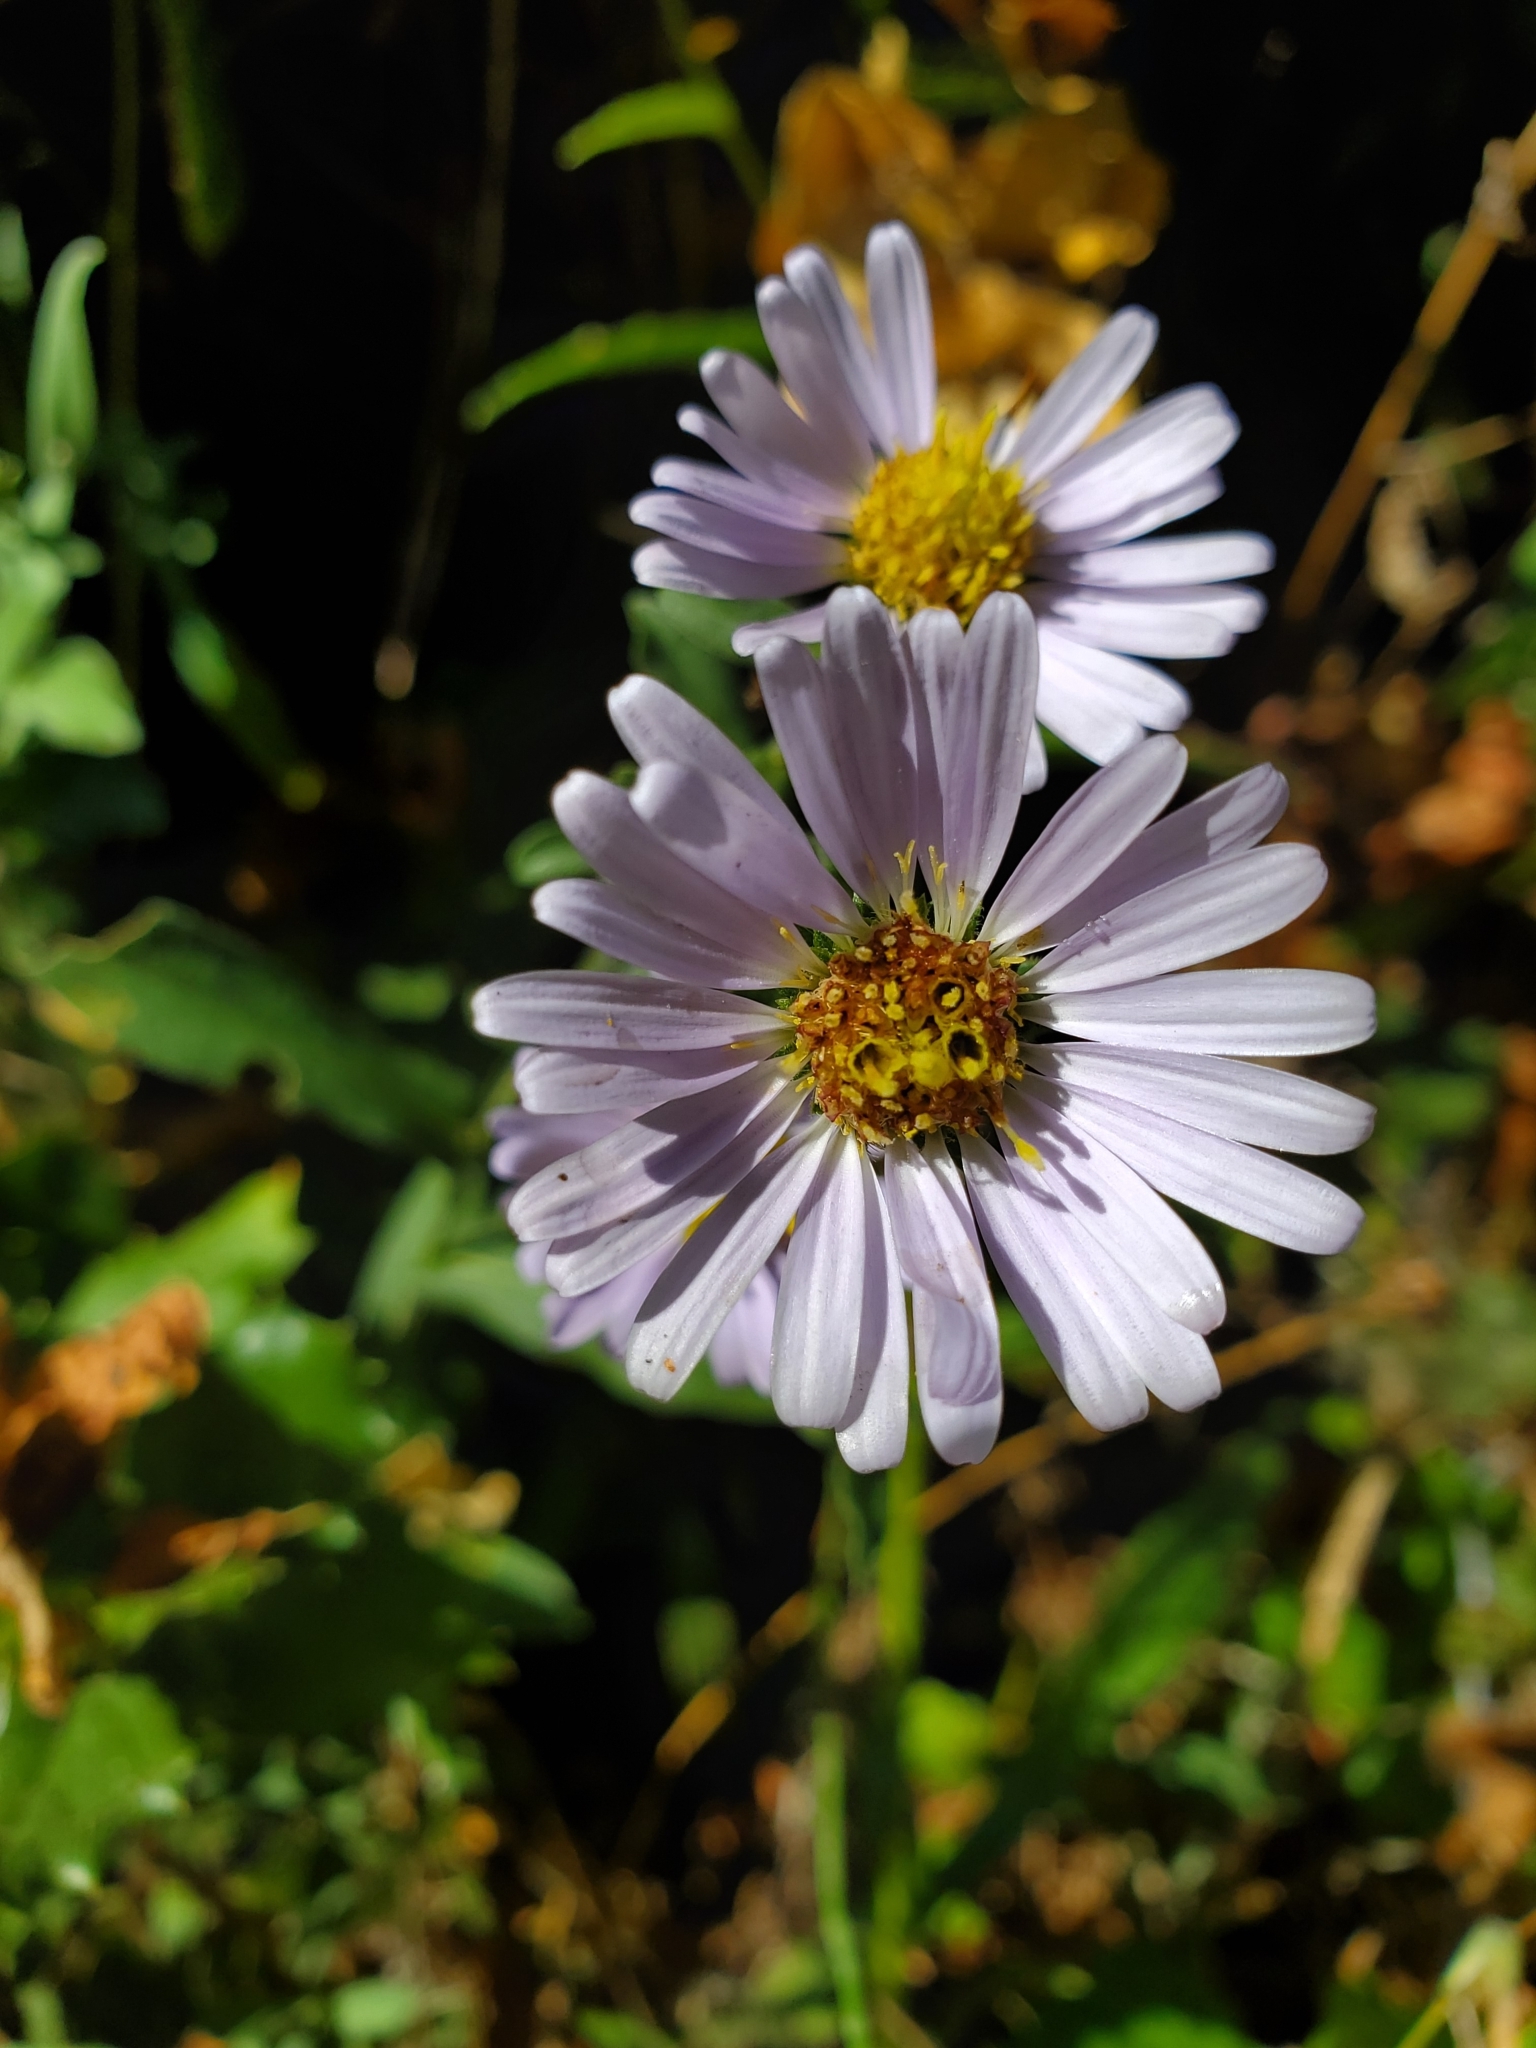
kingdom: Plantae
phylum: Tracheophyta
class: Magnoliopsida
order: Asterales
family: Asteraceae
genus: Symphyotrichum
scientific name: Symphyotrichum chilense
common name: Pacific aster
